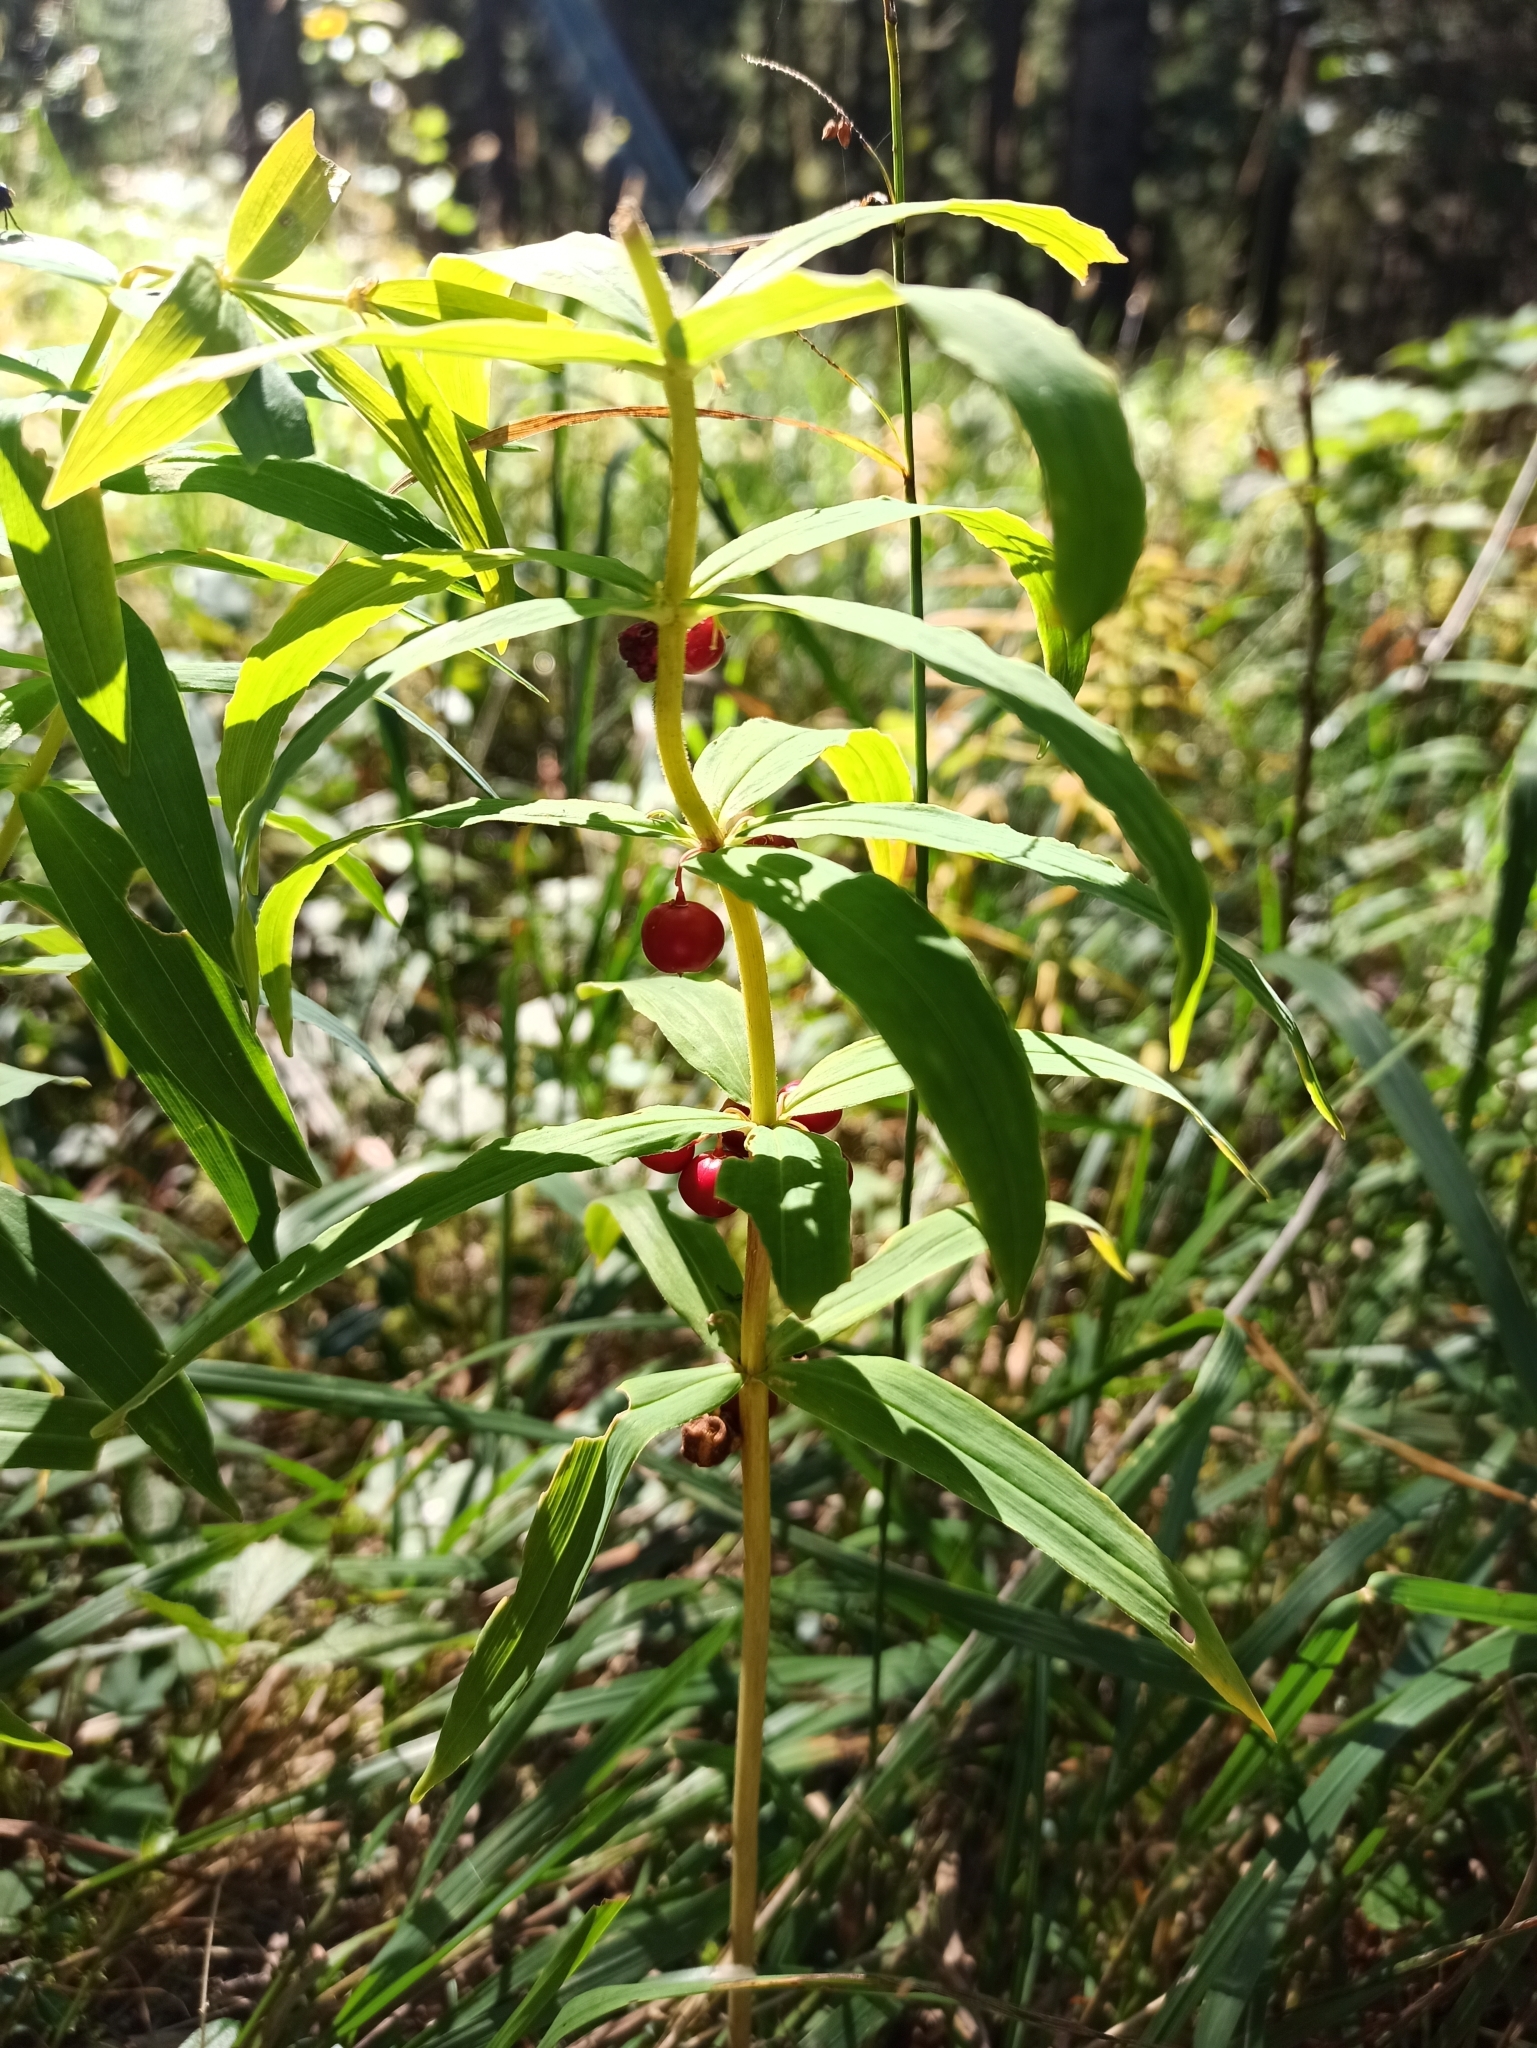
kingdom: Plantae
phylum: Tracheophyta
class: Liliopsida
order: Asparagales
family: Asparagaceae
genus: Polygonatum
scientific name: Polygonatum verticillatum
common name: Whorled solomon's-seal
